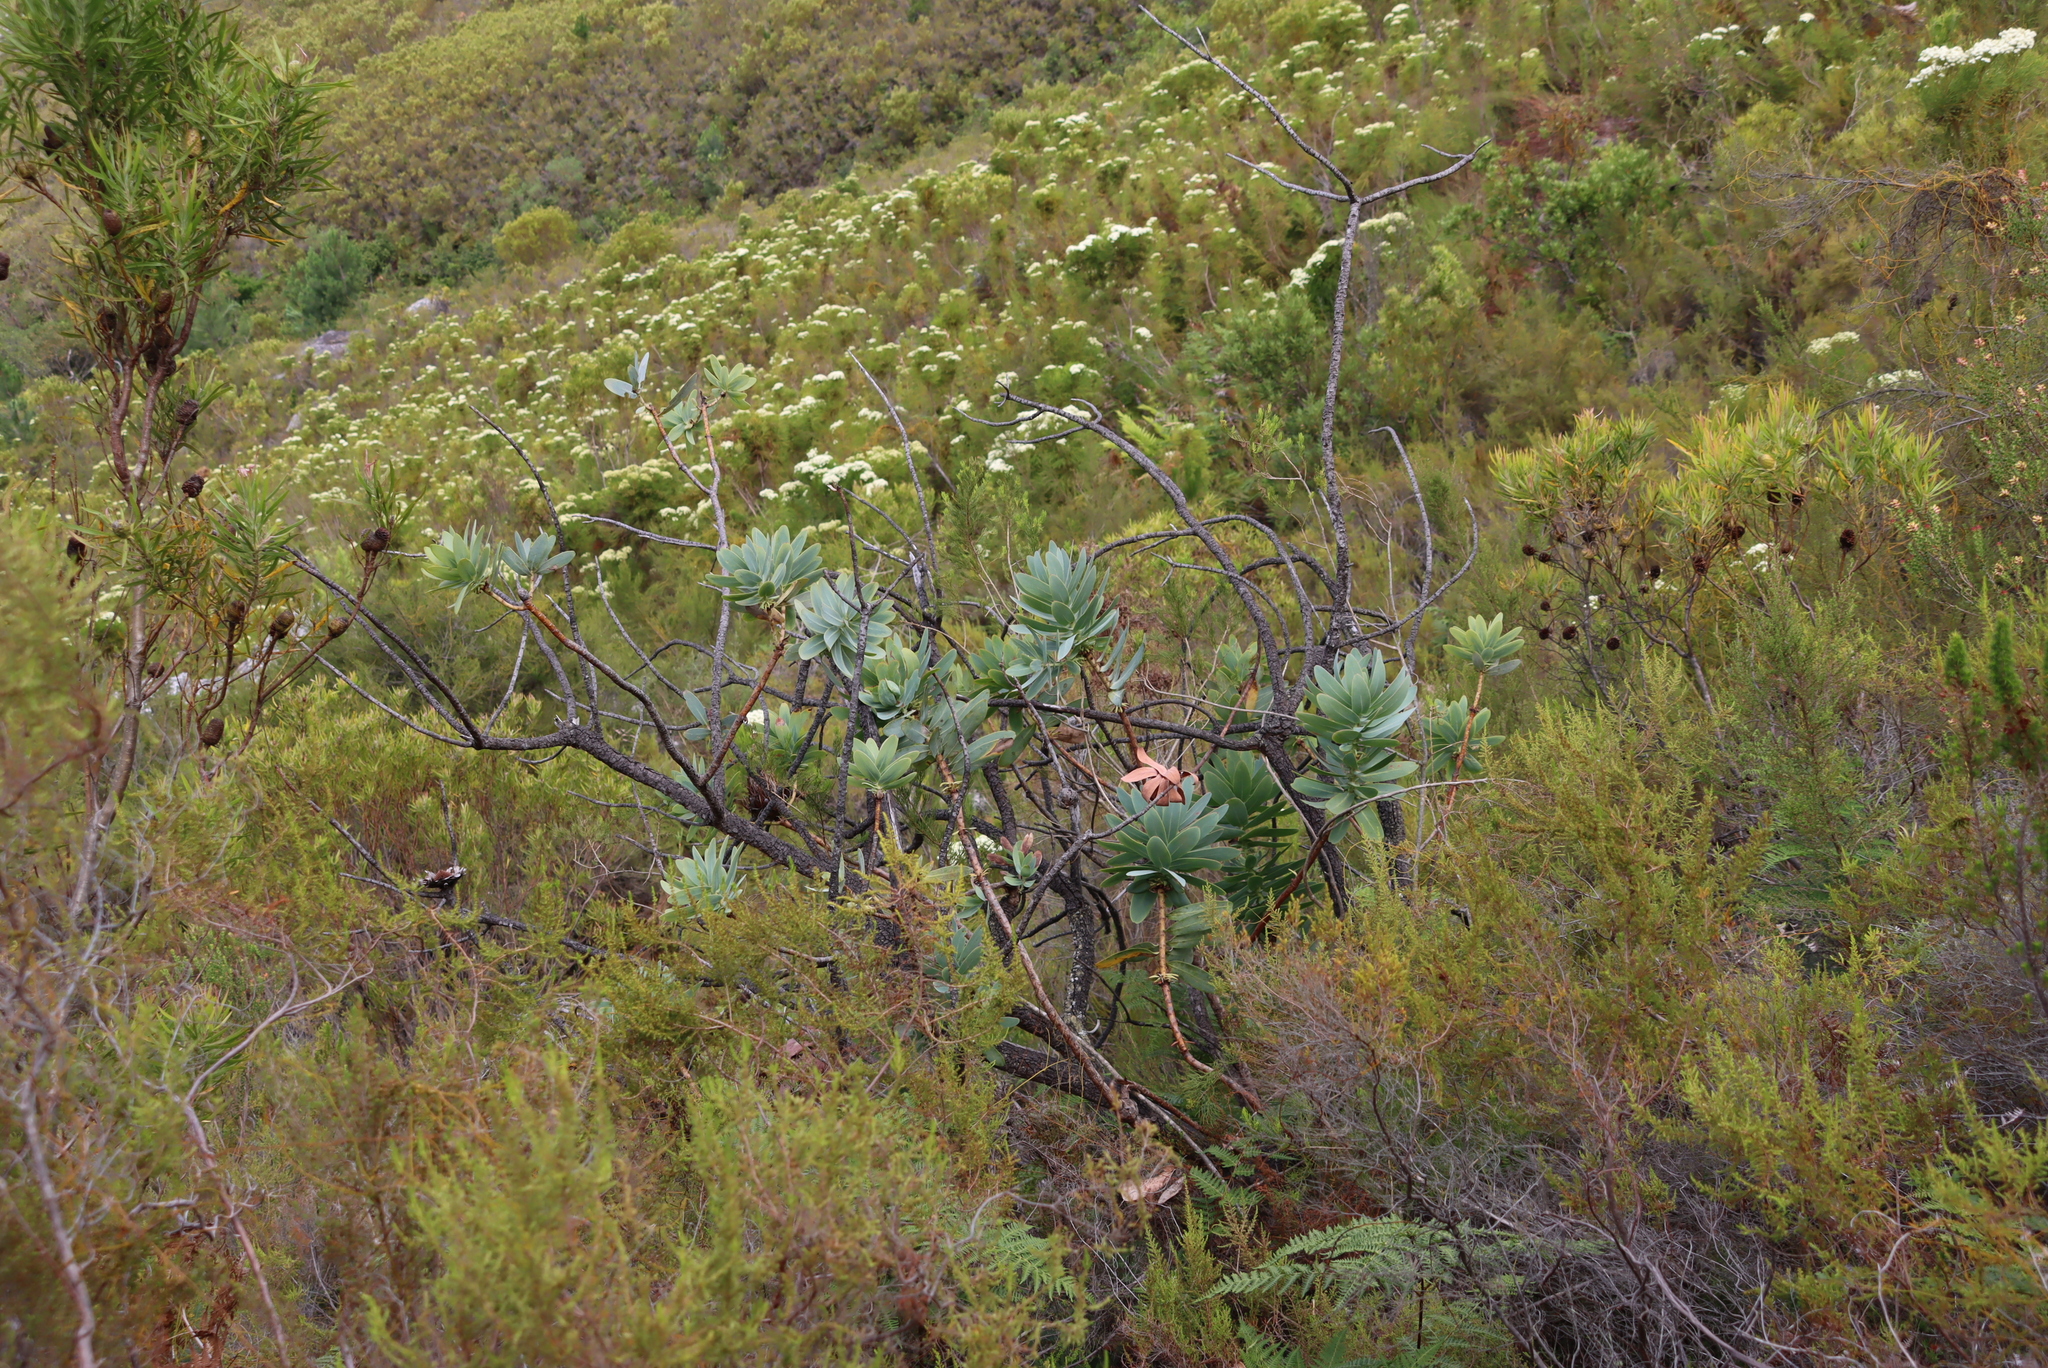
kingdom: Plantae
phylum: Tracheophyta
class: Magnoliopsida
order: Proteales
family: Proteaceae
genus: Protea
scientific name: Protea nitida
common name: Tree protea
